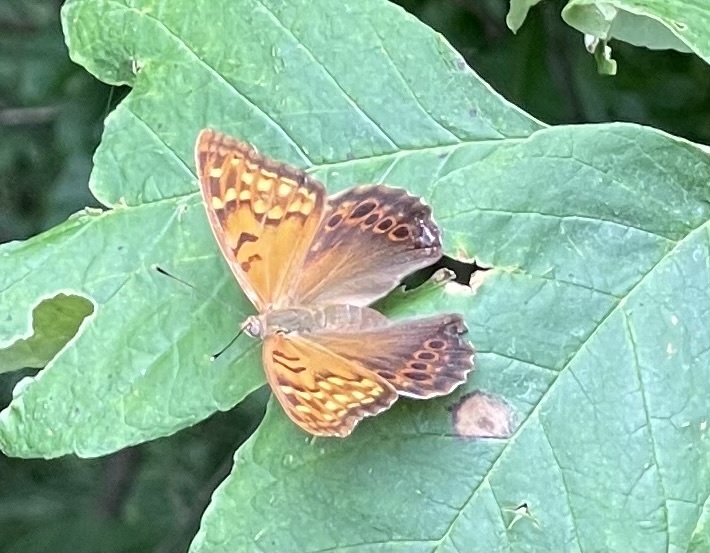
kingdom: Animalia
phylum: Arthropoda
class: Insecta
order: Lepidoptera
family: Nymphalidae
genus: Asterocampa
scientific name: Asterocampa clyton
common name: Tawny emperor
